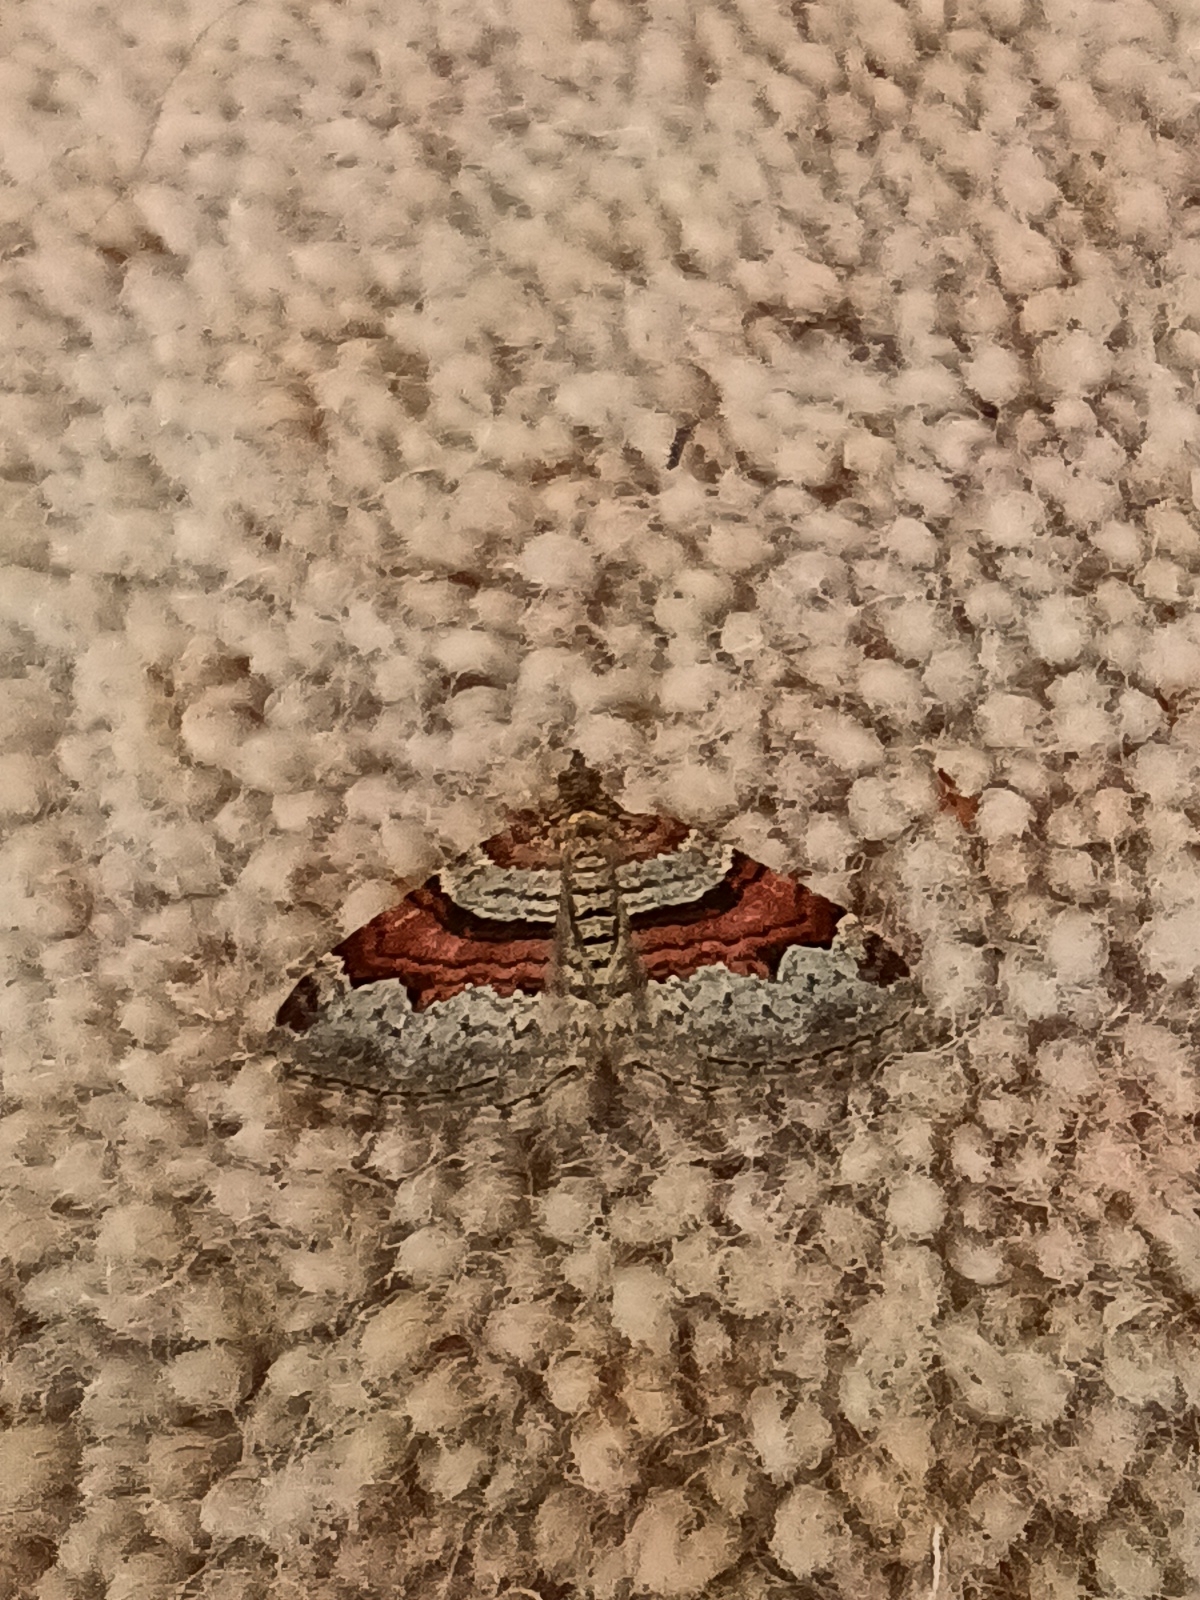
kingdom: Animalia
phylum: Arthropoda
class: Insecta
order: Lepidoptera
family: Geometridae
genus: Xanthorhoe
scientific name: Xanthorhoe designata
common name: Flame carpet
